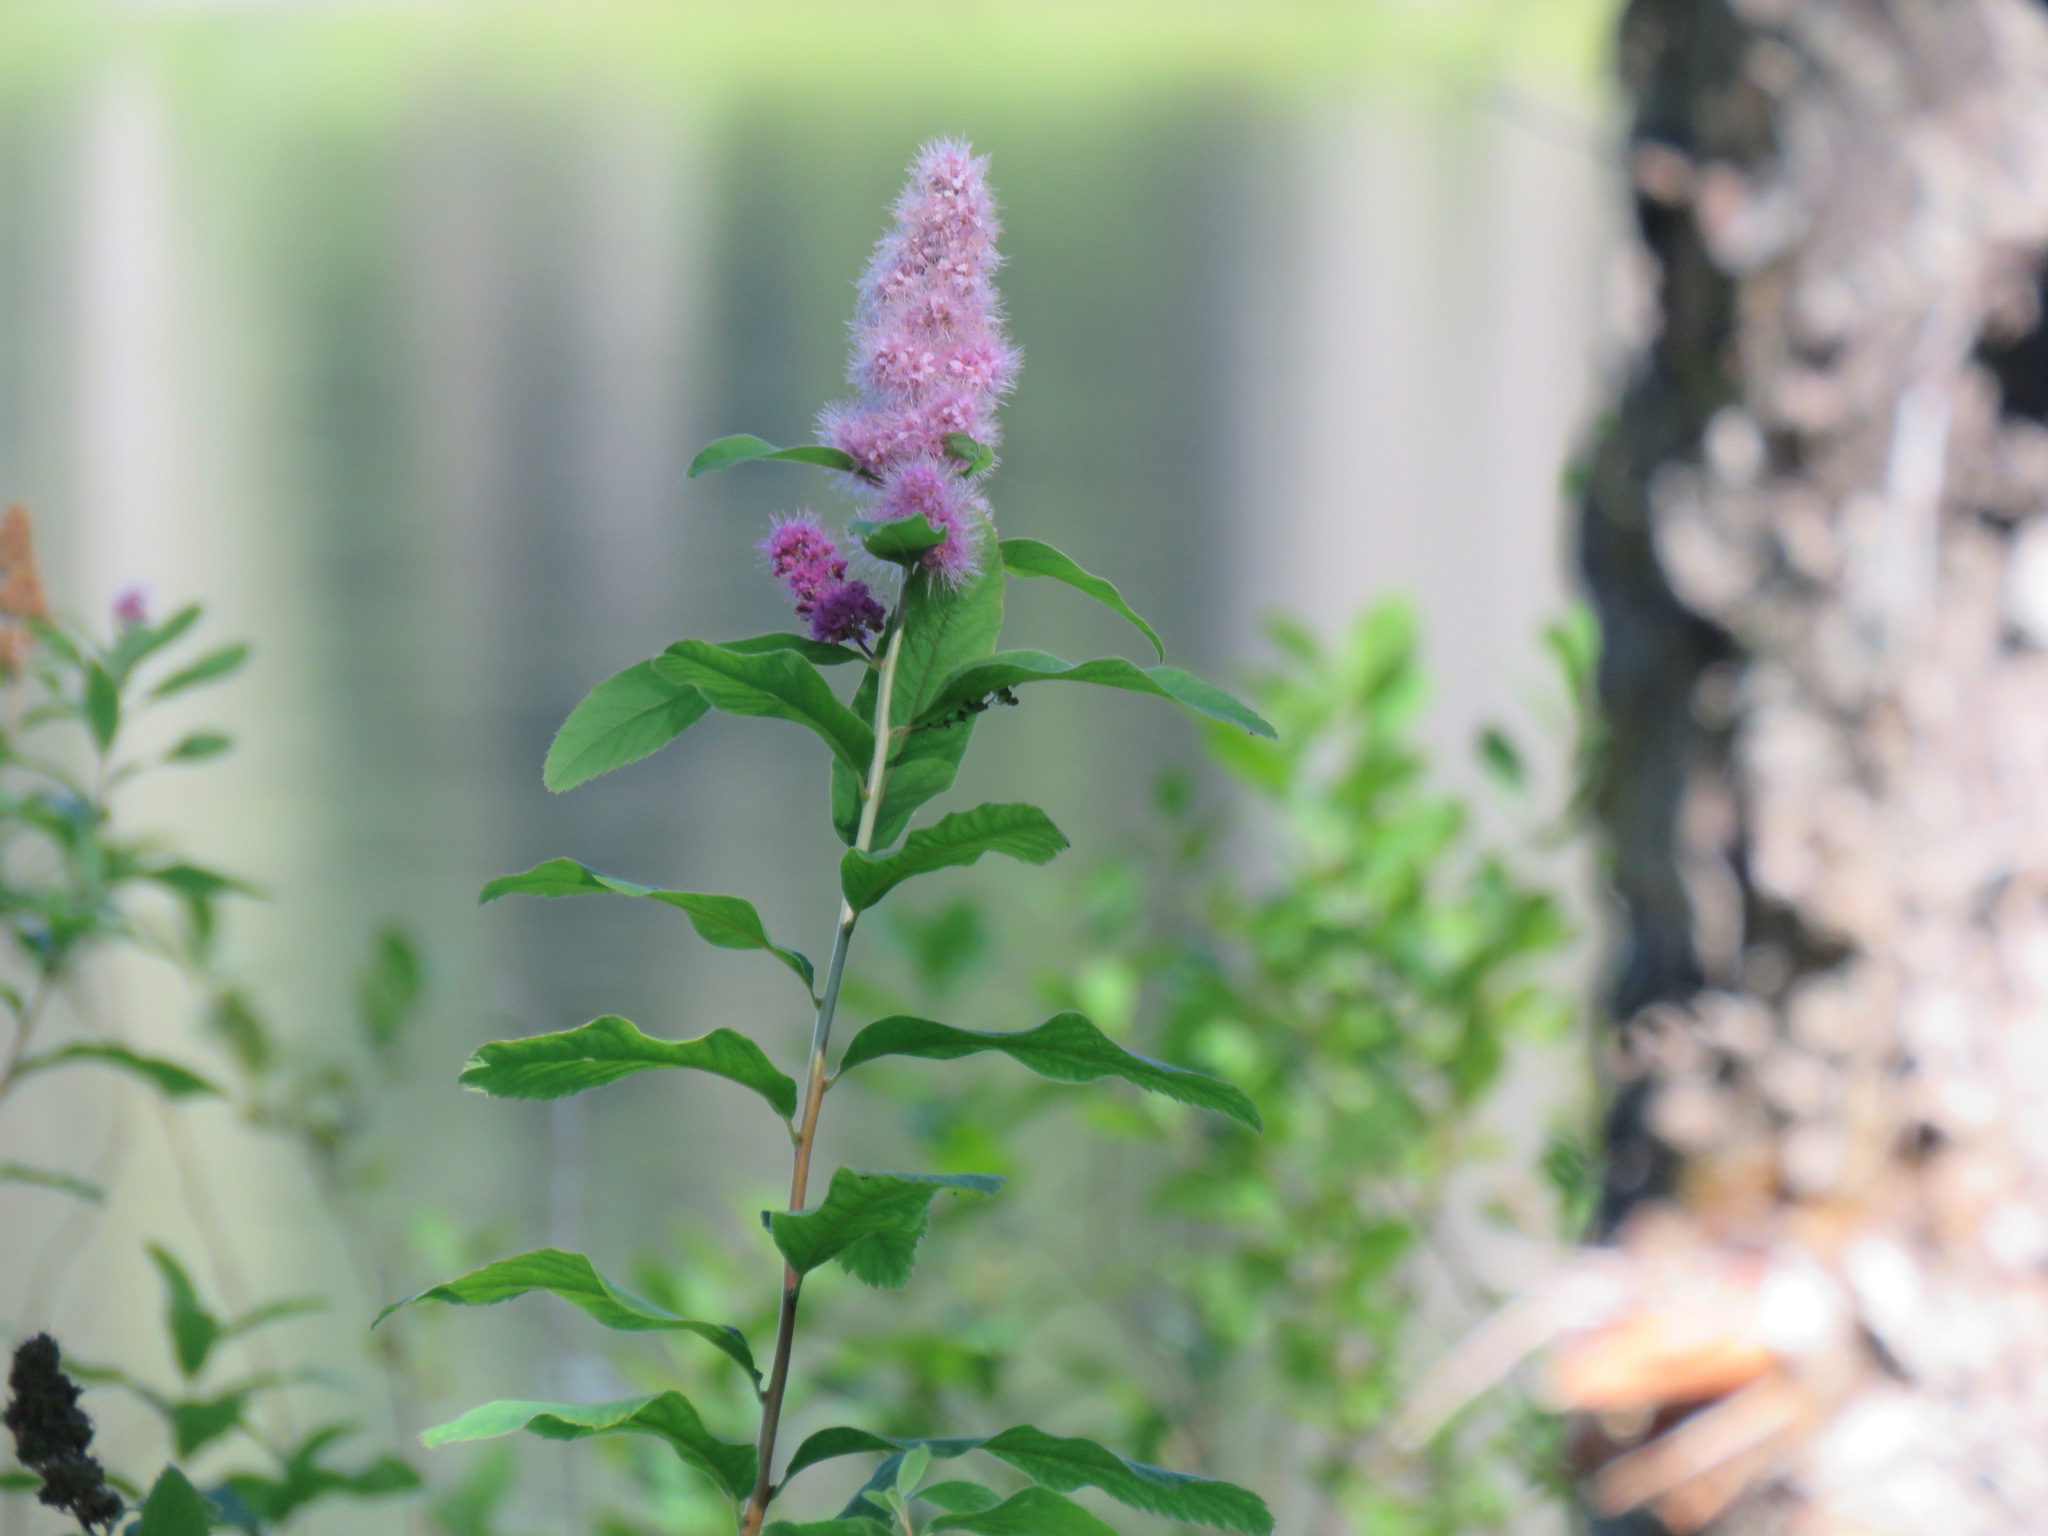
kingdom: Plantae
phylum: Tracheophyta
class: Magnoliopsida
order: Rosales
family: Rosaceae
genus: Spiraea
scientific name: Spiraea douglasii
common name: Steeplebush
